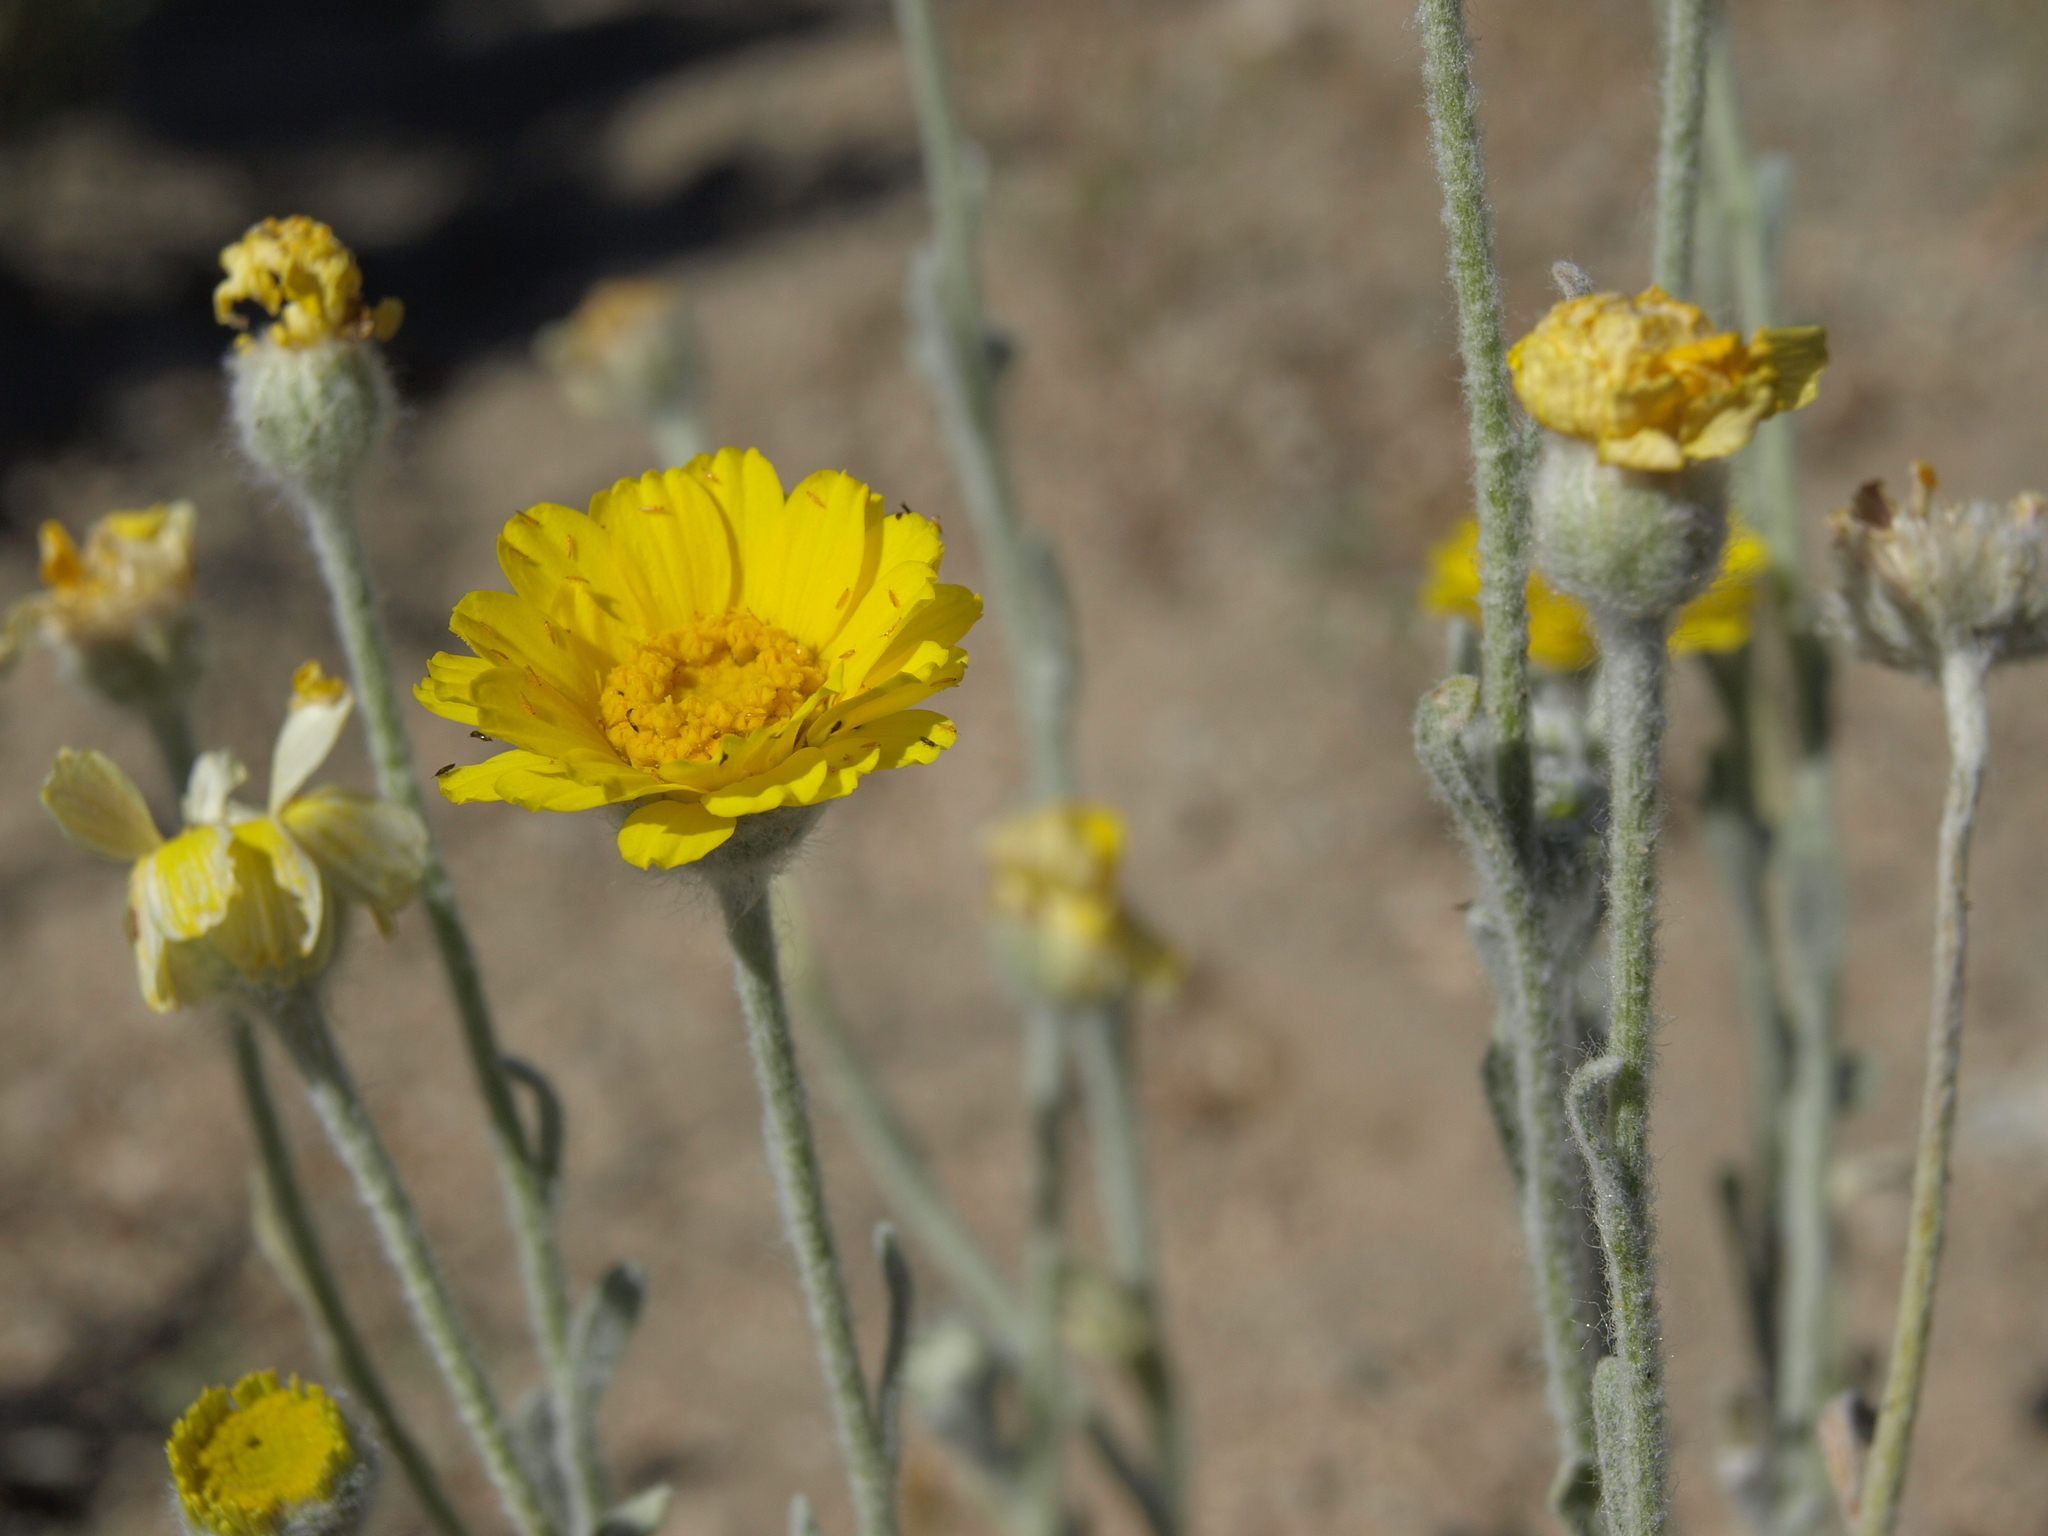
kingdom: Plantae
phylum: Tracheophyta
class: Magnoliopsida
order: Asterales
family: Asteraceae
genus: Baileya
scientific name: Baileya pleniradiata
